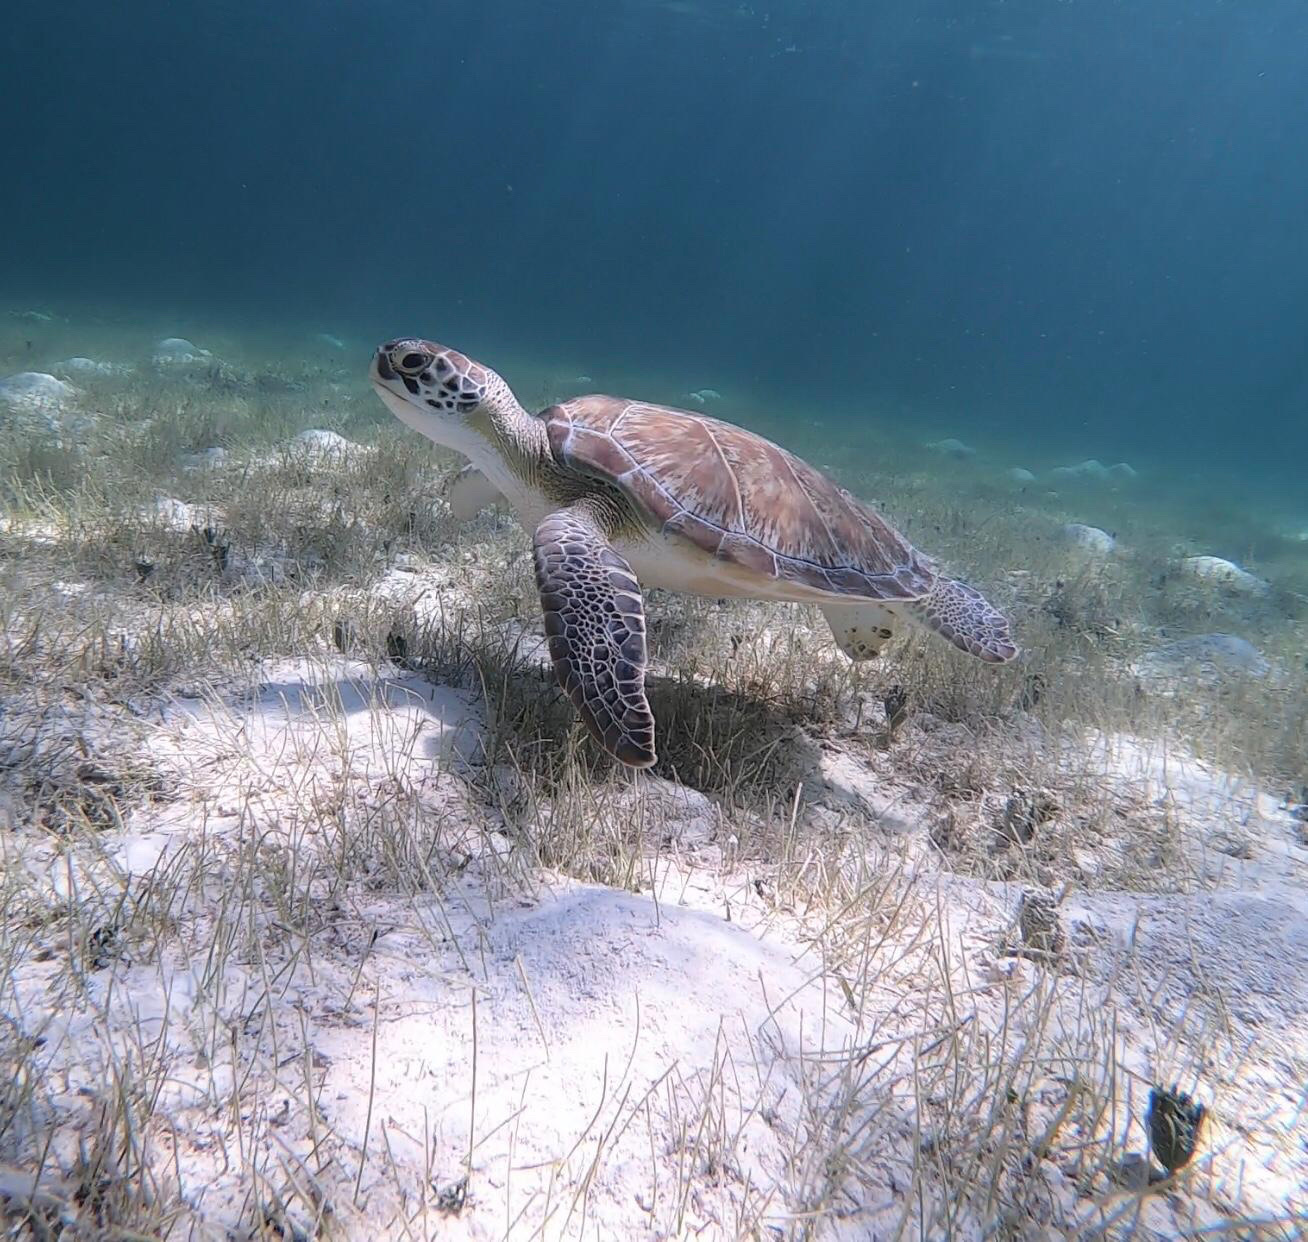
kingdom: Animalia
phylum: Chordata
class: Testudines
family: Cheloniidae
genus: Chelonia
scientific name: Chelonia mydas
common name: Green turtle
